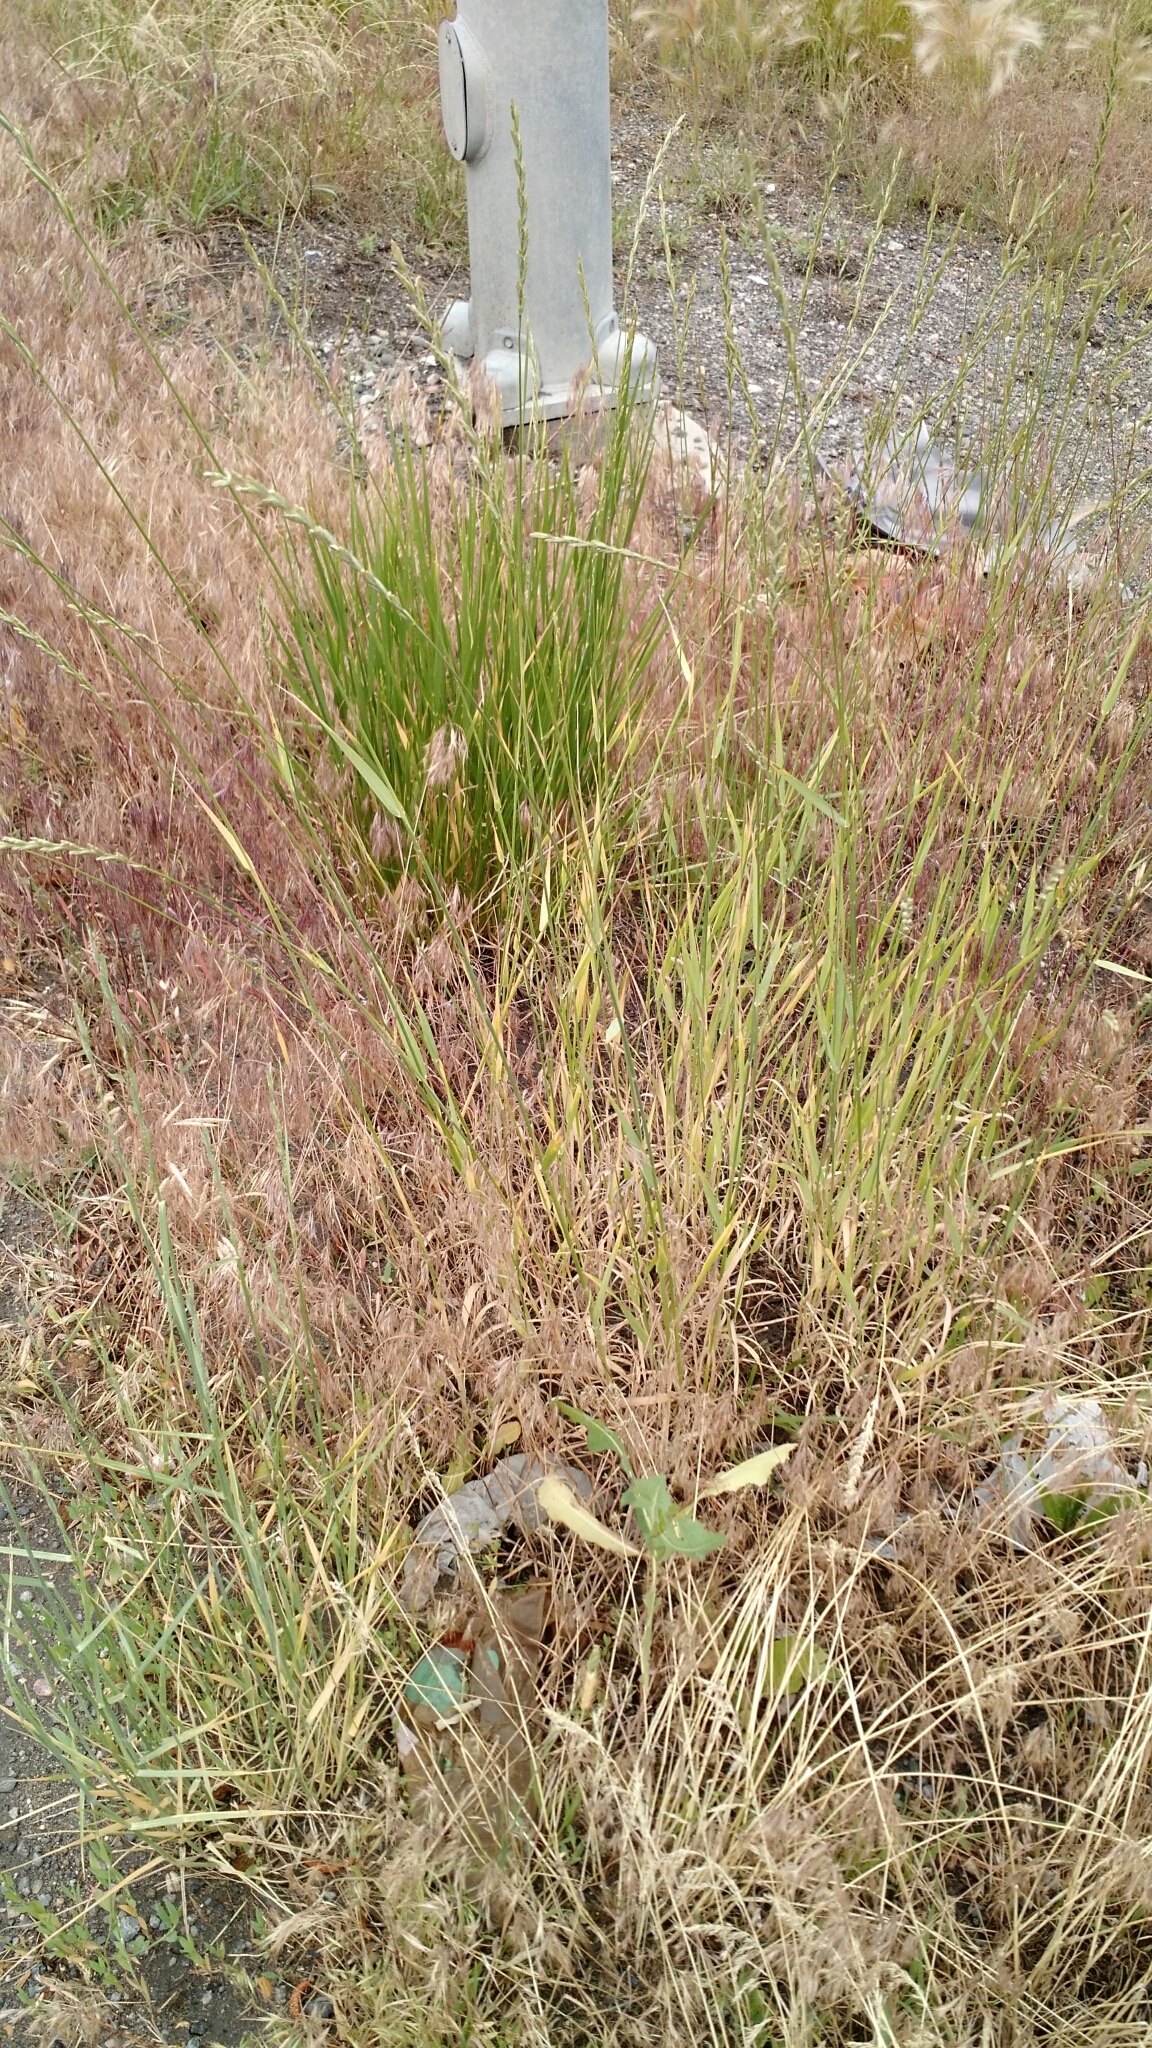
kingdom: Plantae
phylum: Tracheophyta
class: Liliopsida
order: Poales
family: Poaceae
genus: Thinopyrum
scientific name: Thinopyrum intermedium
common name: Intermediate wheatgrass
